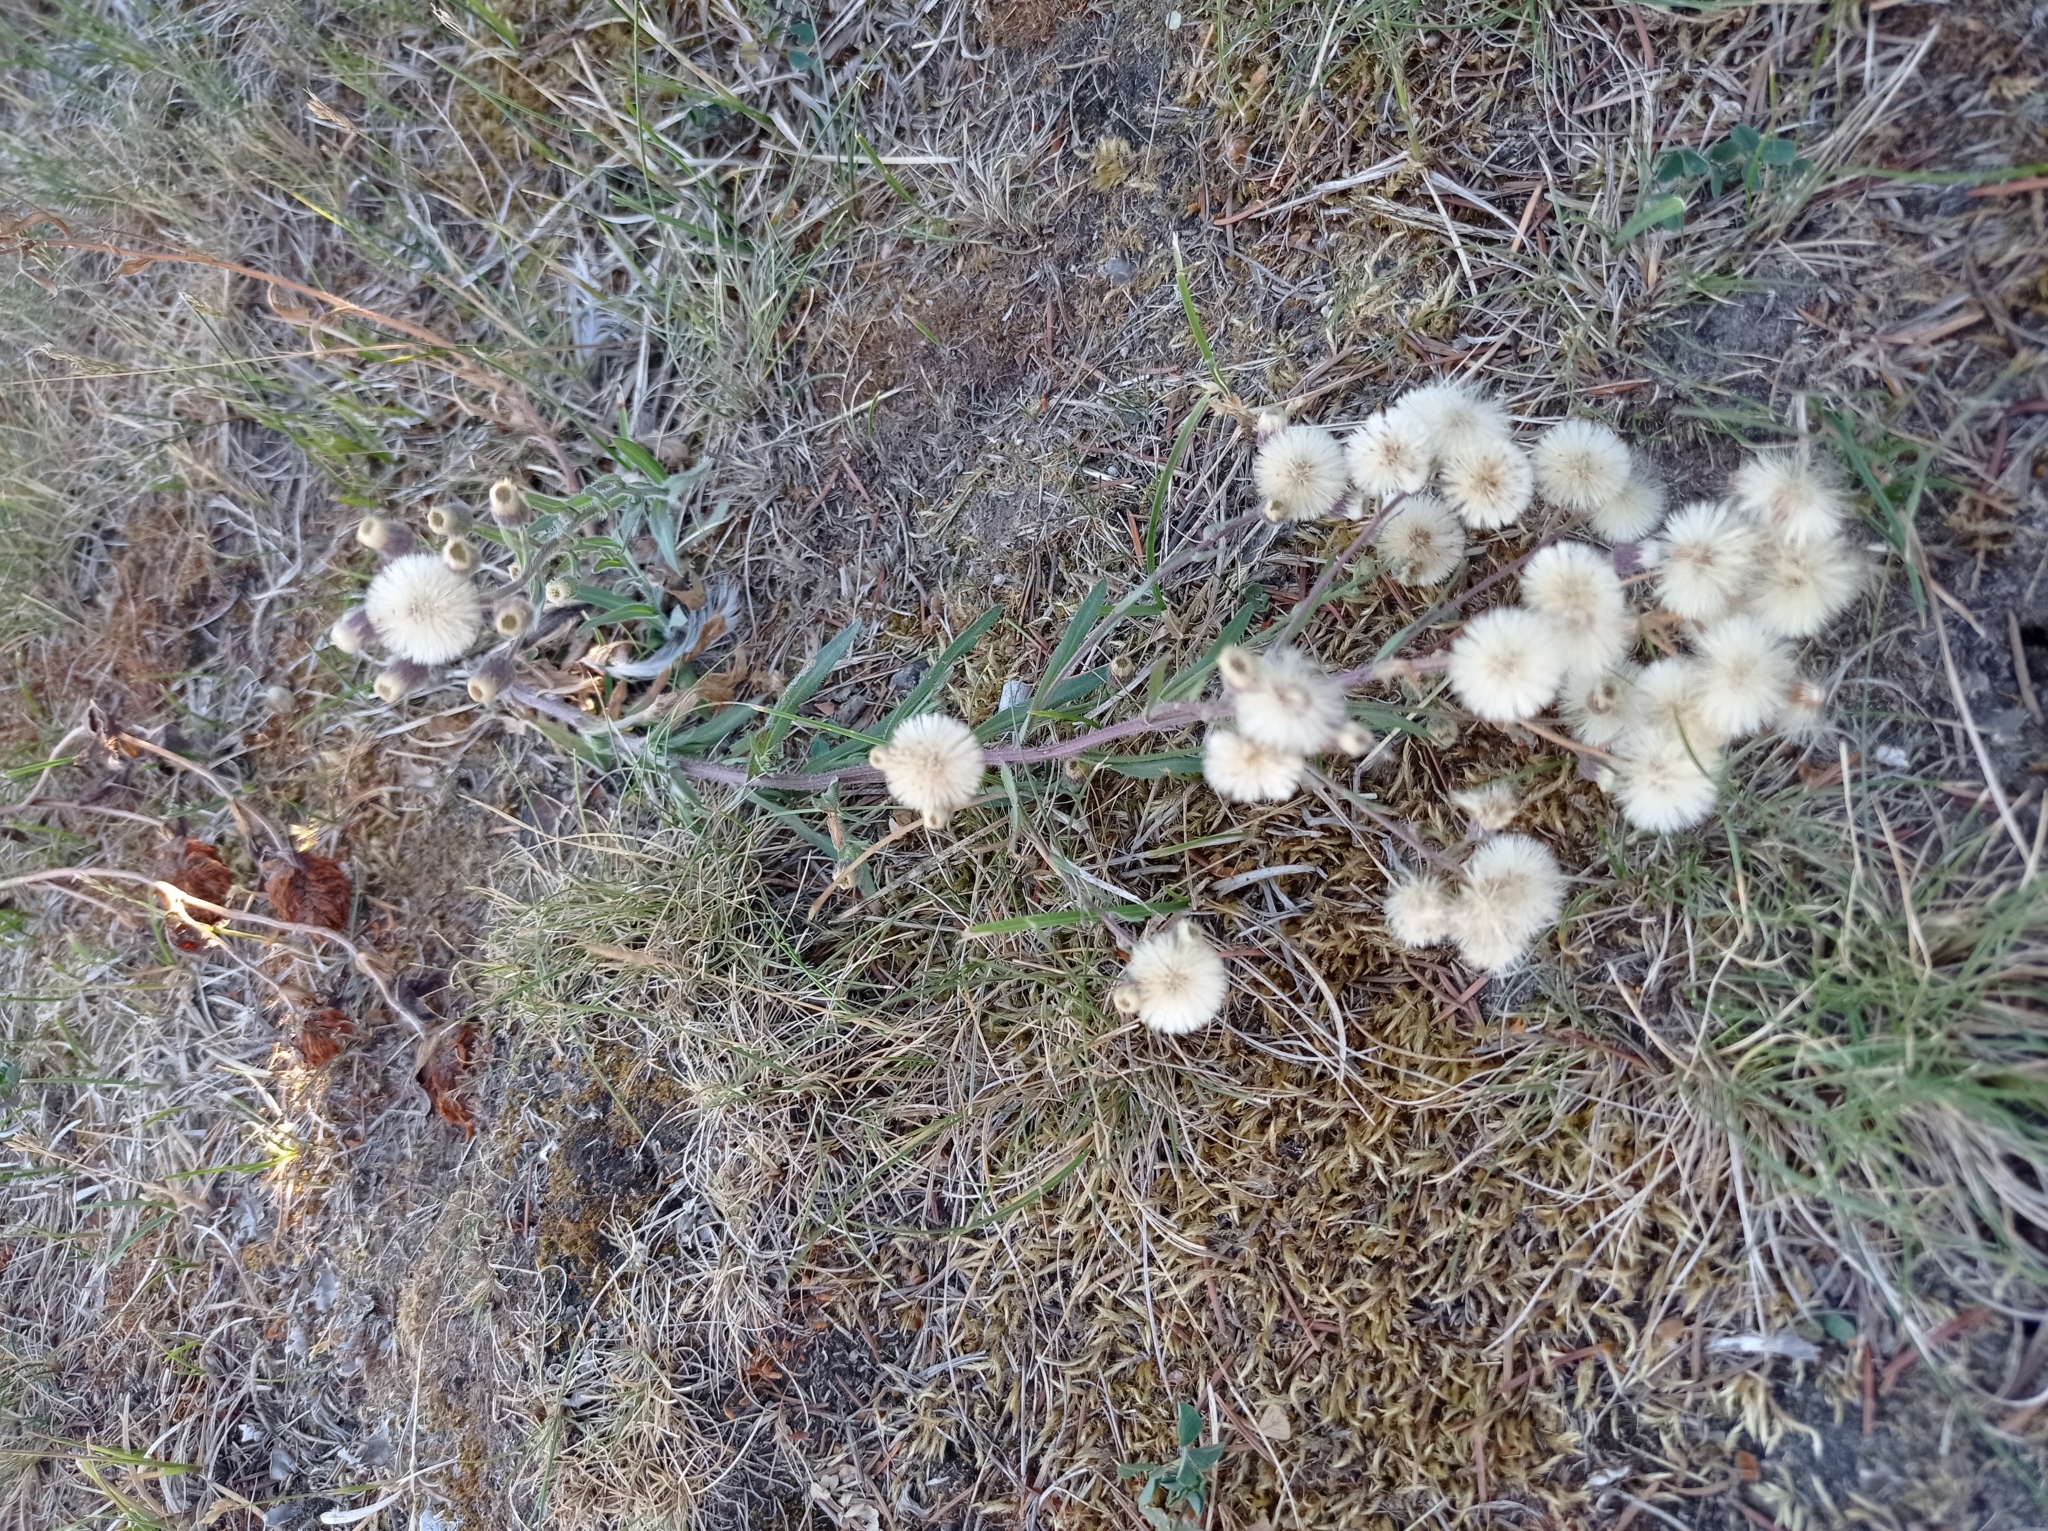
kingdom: Plantae
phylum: Tracheophyta
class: Magnoliopsida
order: Asterales
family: Asteraceae
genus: Erigeron
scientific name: Erigeron acris
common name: Blue fleabane
